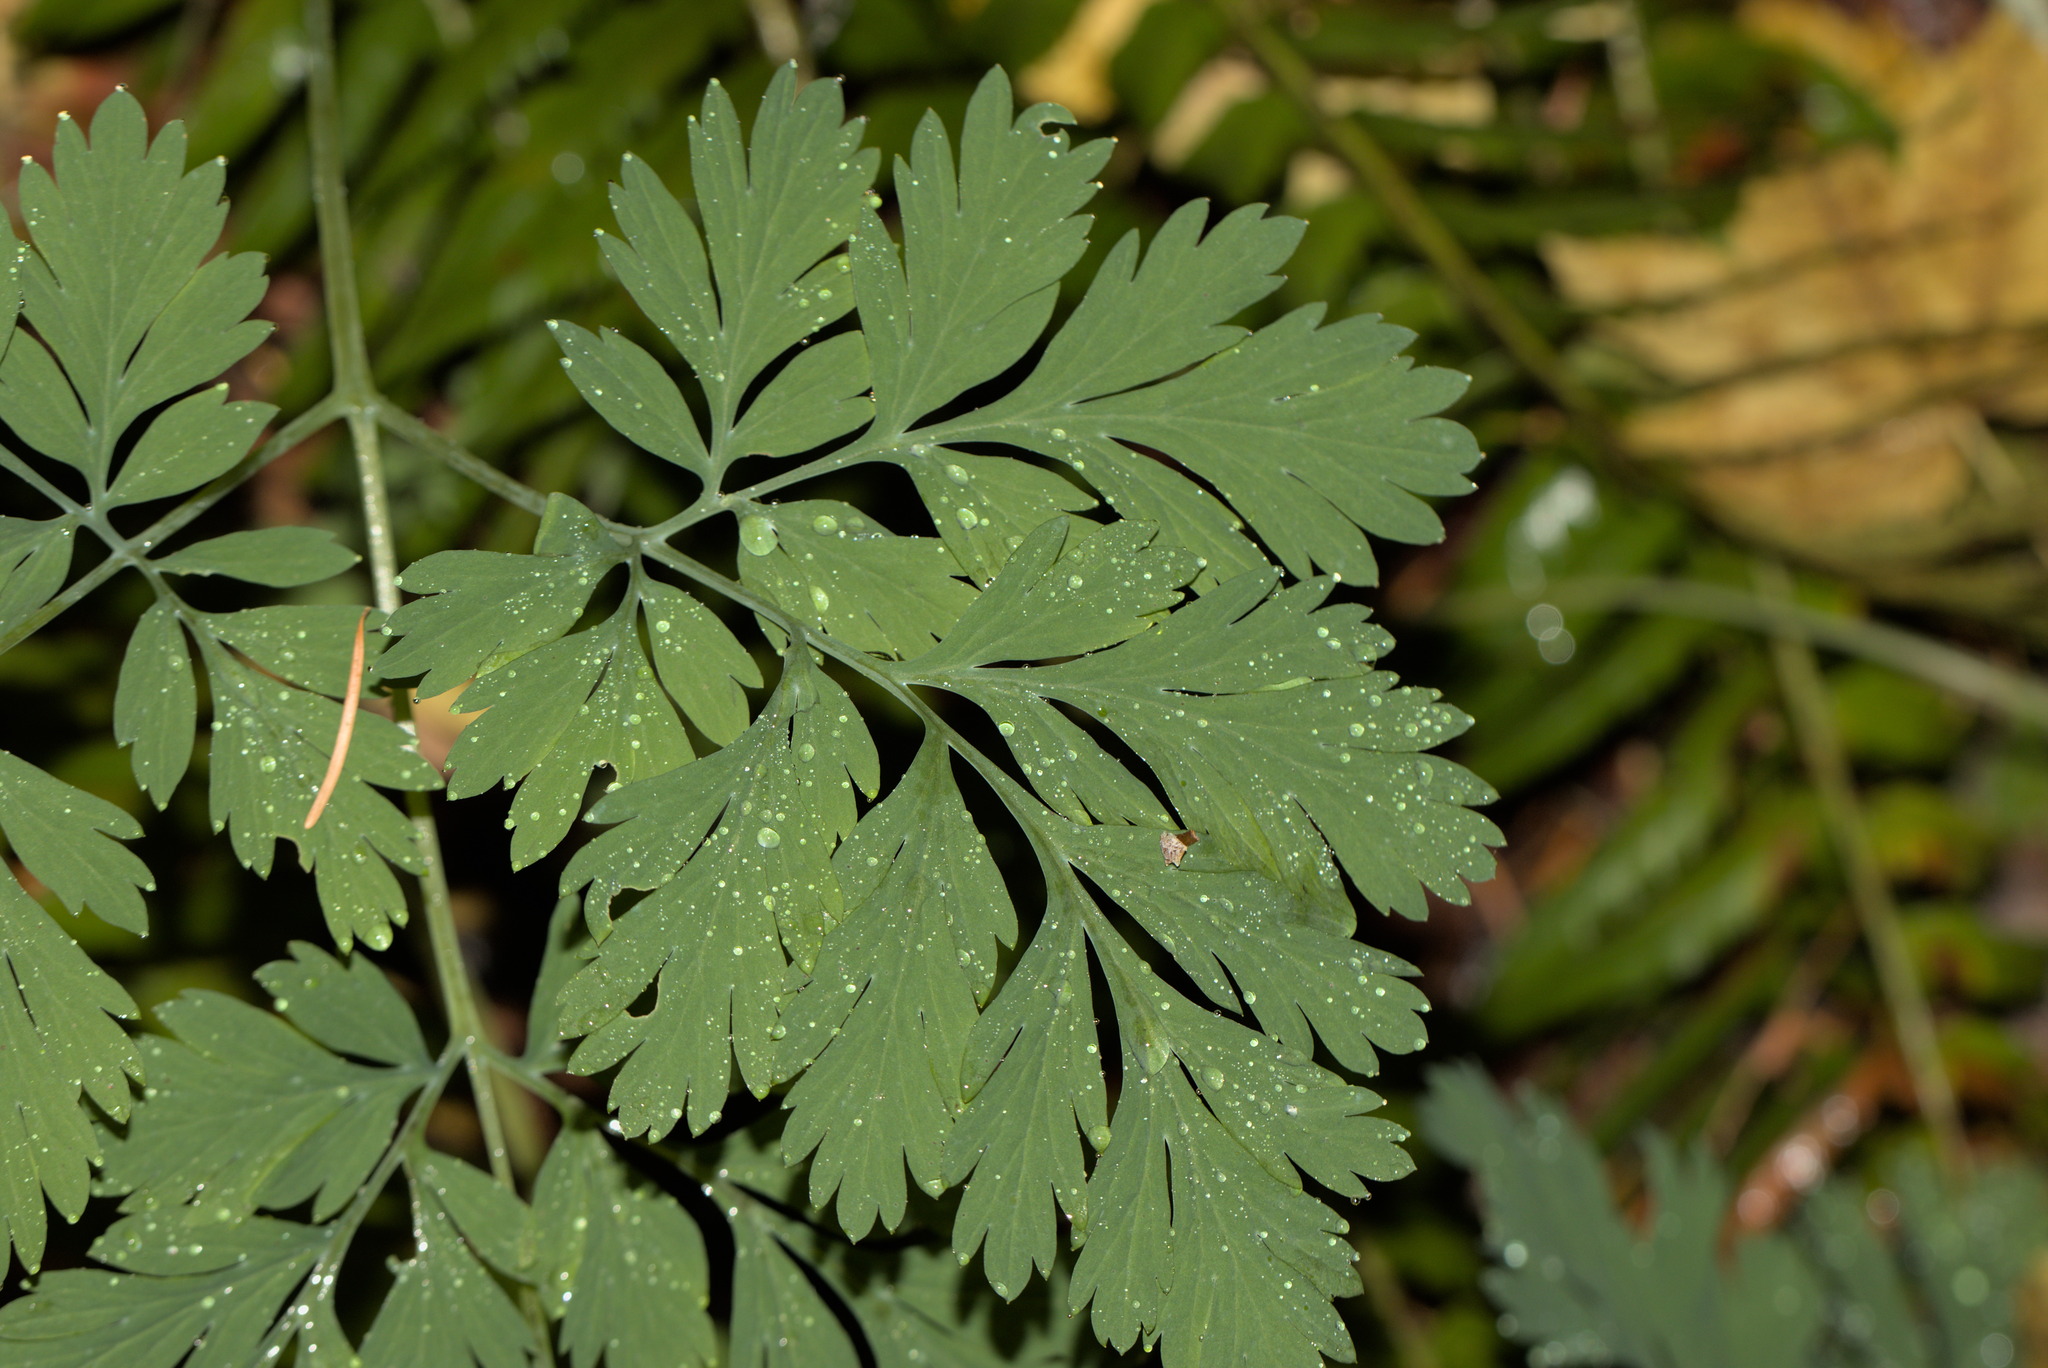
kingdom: Plantae
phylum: Tracheophyta
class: Magnoliopsida
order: Ranunculales
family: Papaveraceae
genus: Dicentra
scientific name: Dicentra formosa
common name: Bleeding-heart
